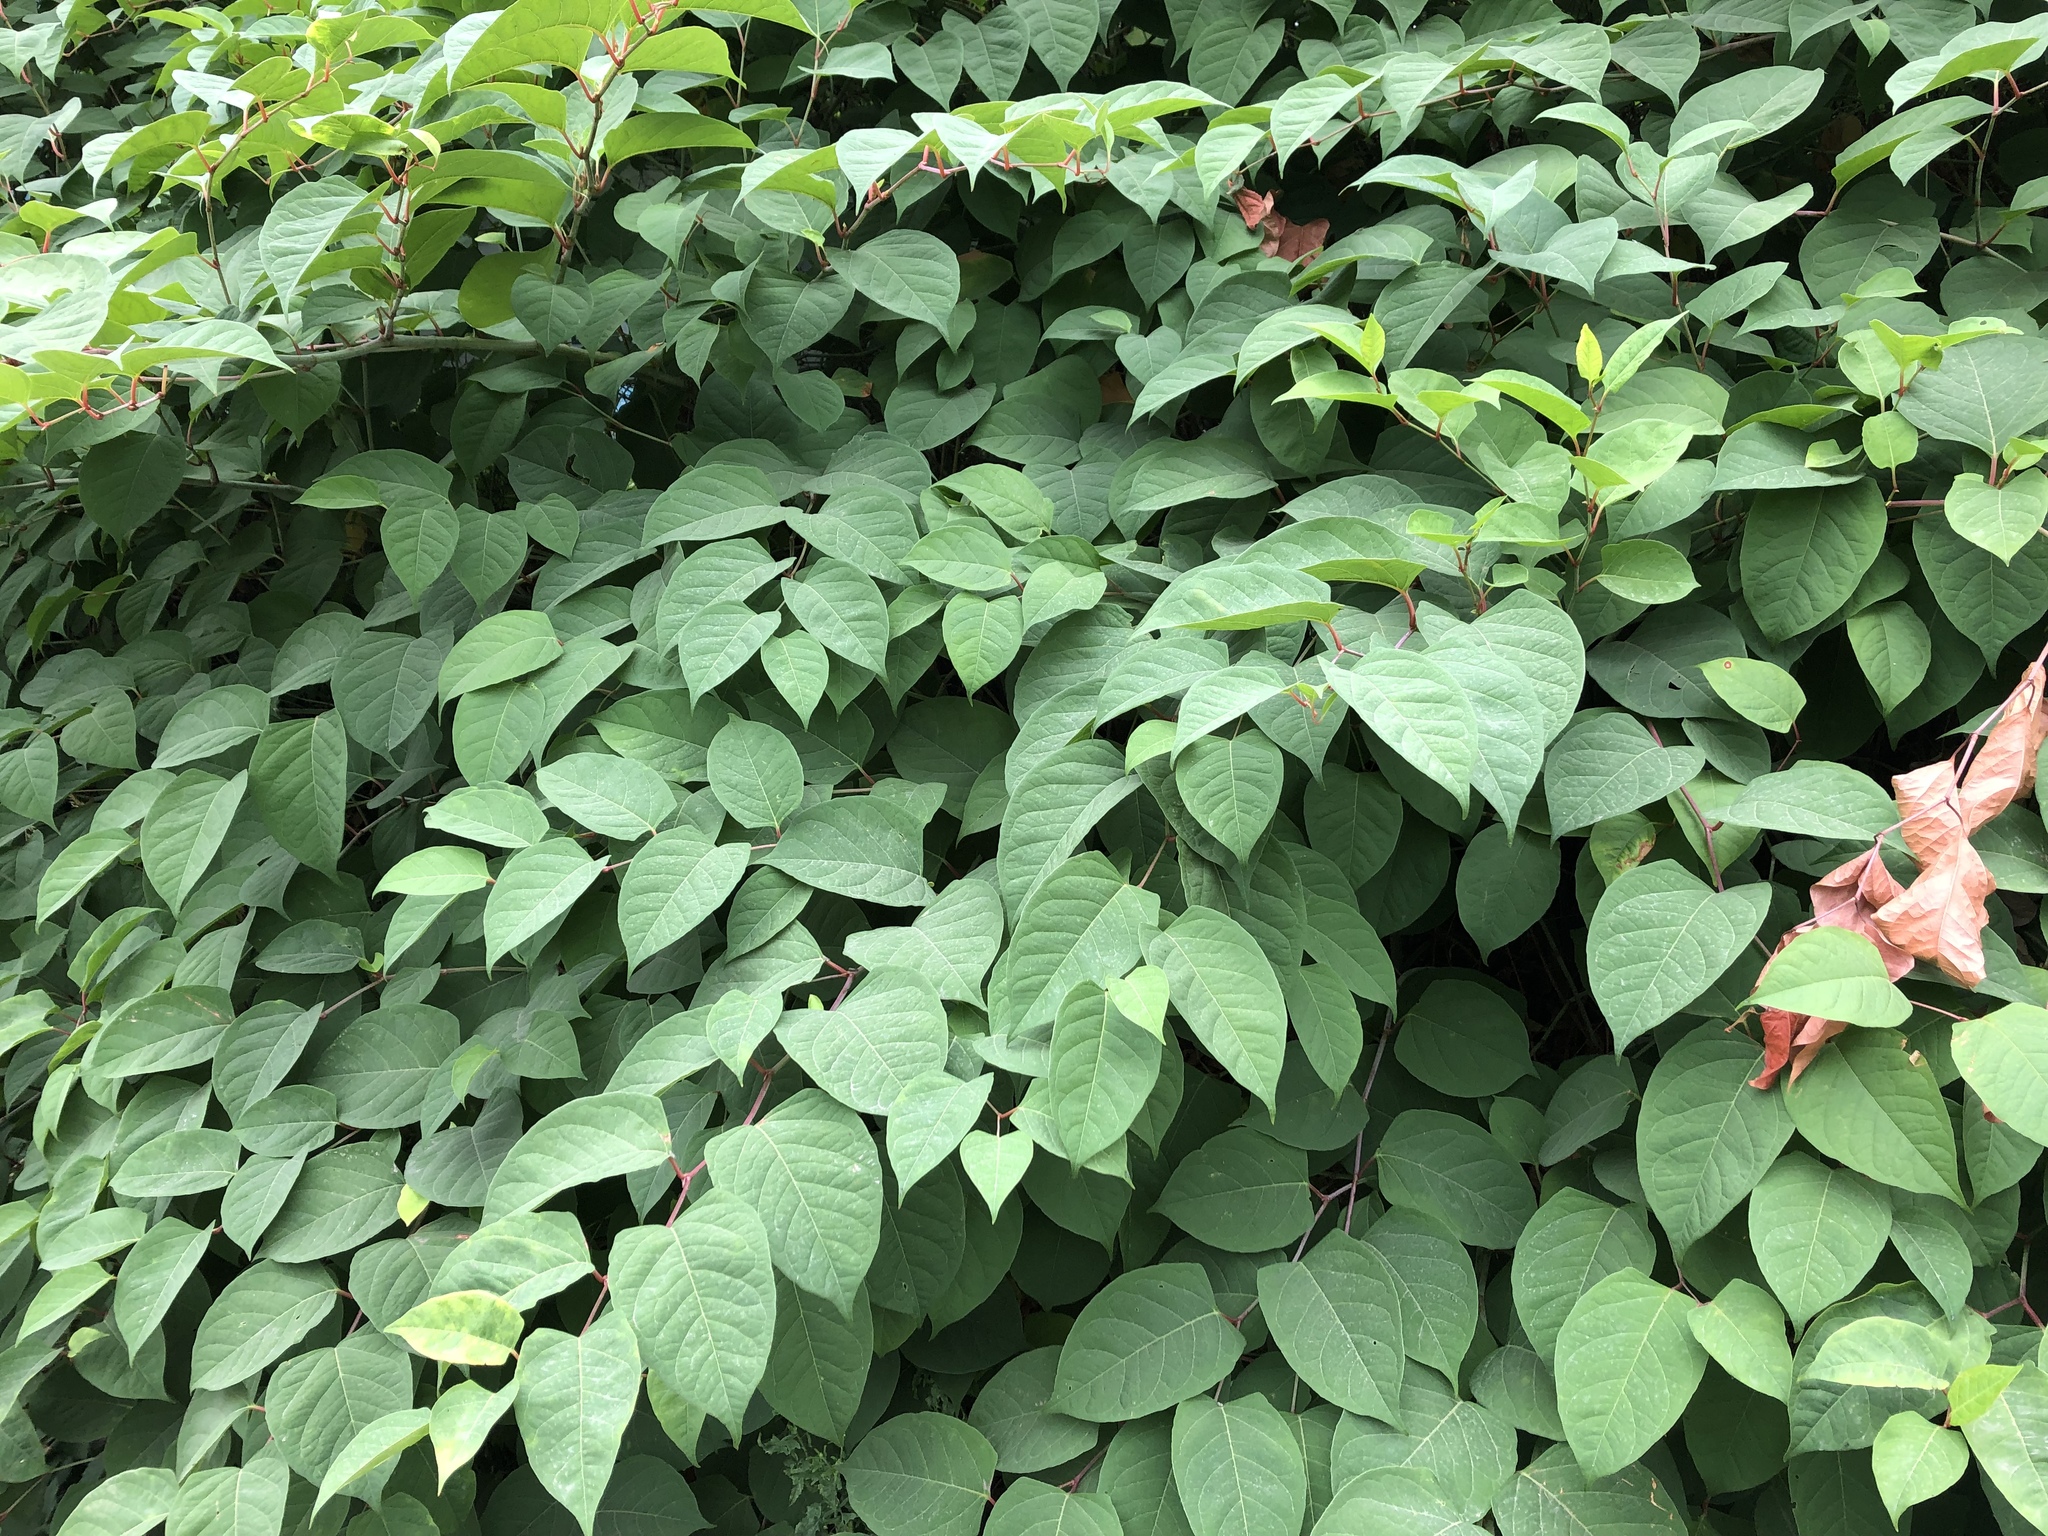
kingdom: Plantae
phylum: Tracheophyta
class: Magnoliopsida
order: Caryophyllales
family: Polygonaceae
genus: Reynoutria
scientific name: Reynoutria japonica
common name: Japanese knotweed
